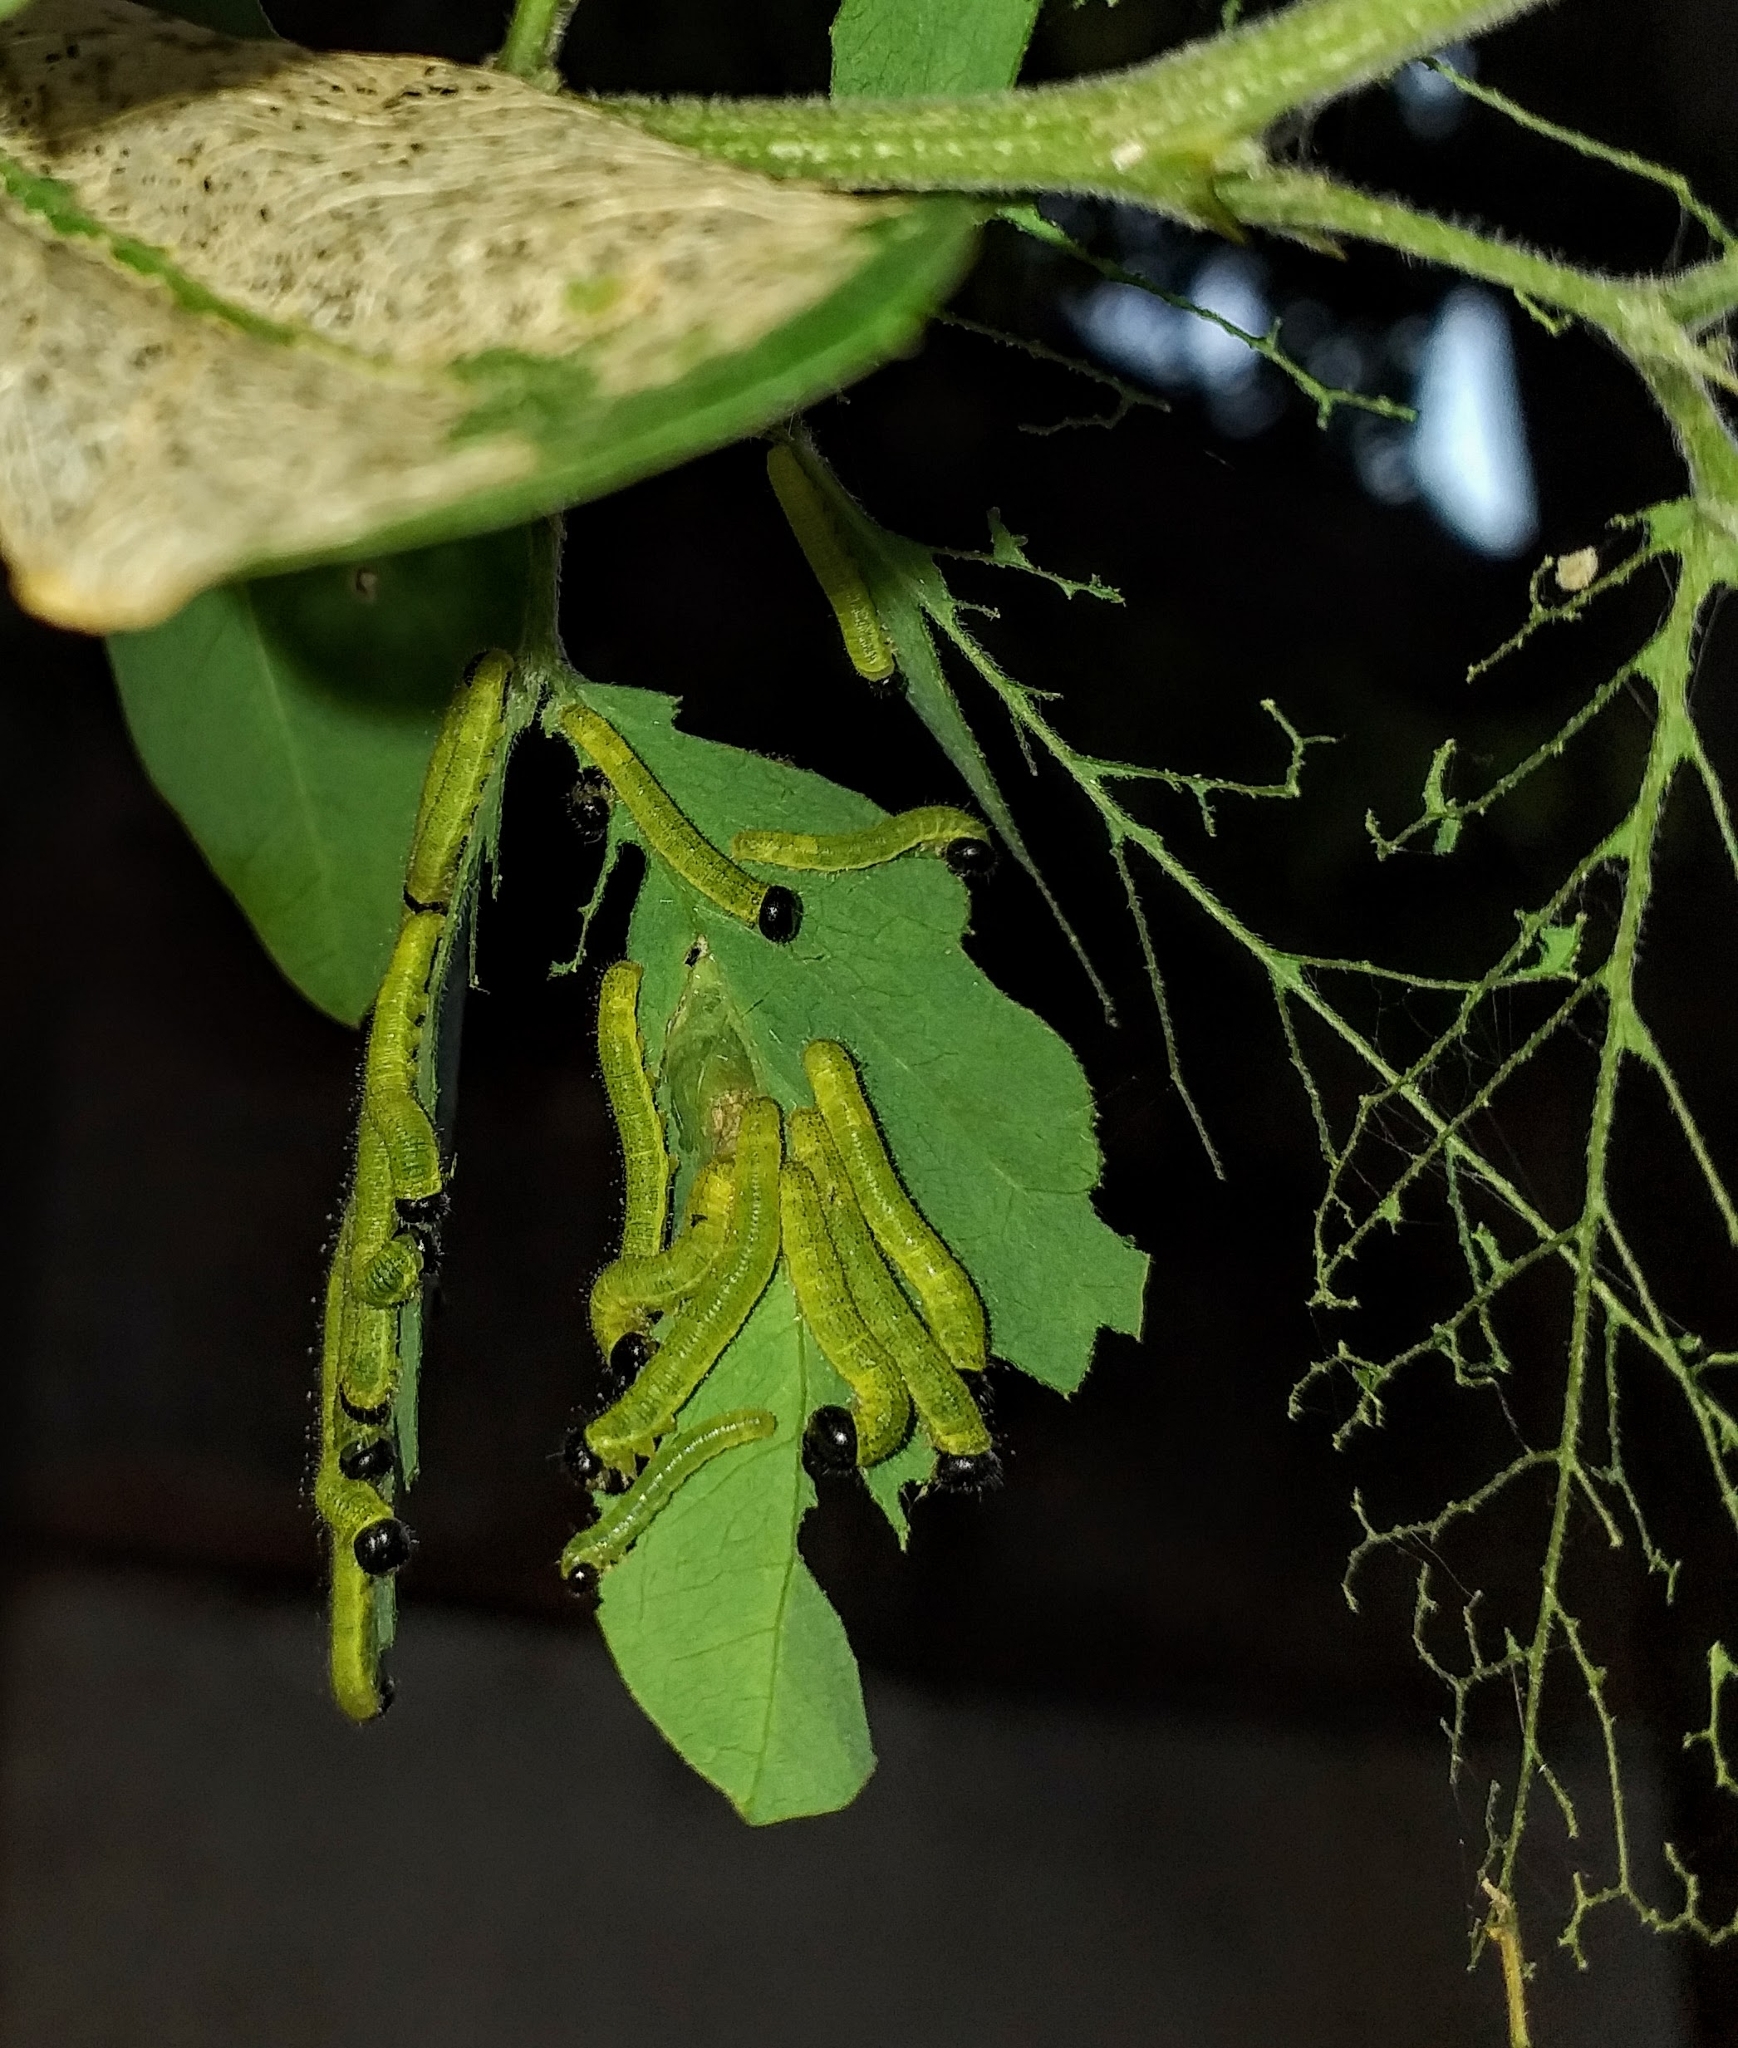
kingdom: Animalia
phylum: Arthropoda
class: Insecta
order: Lepidoptera
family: Pieridae
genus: Eurema
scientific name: Eurema blanda
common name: Three-spot grass yellow
